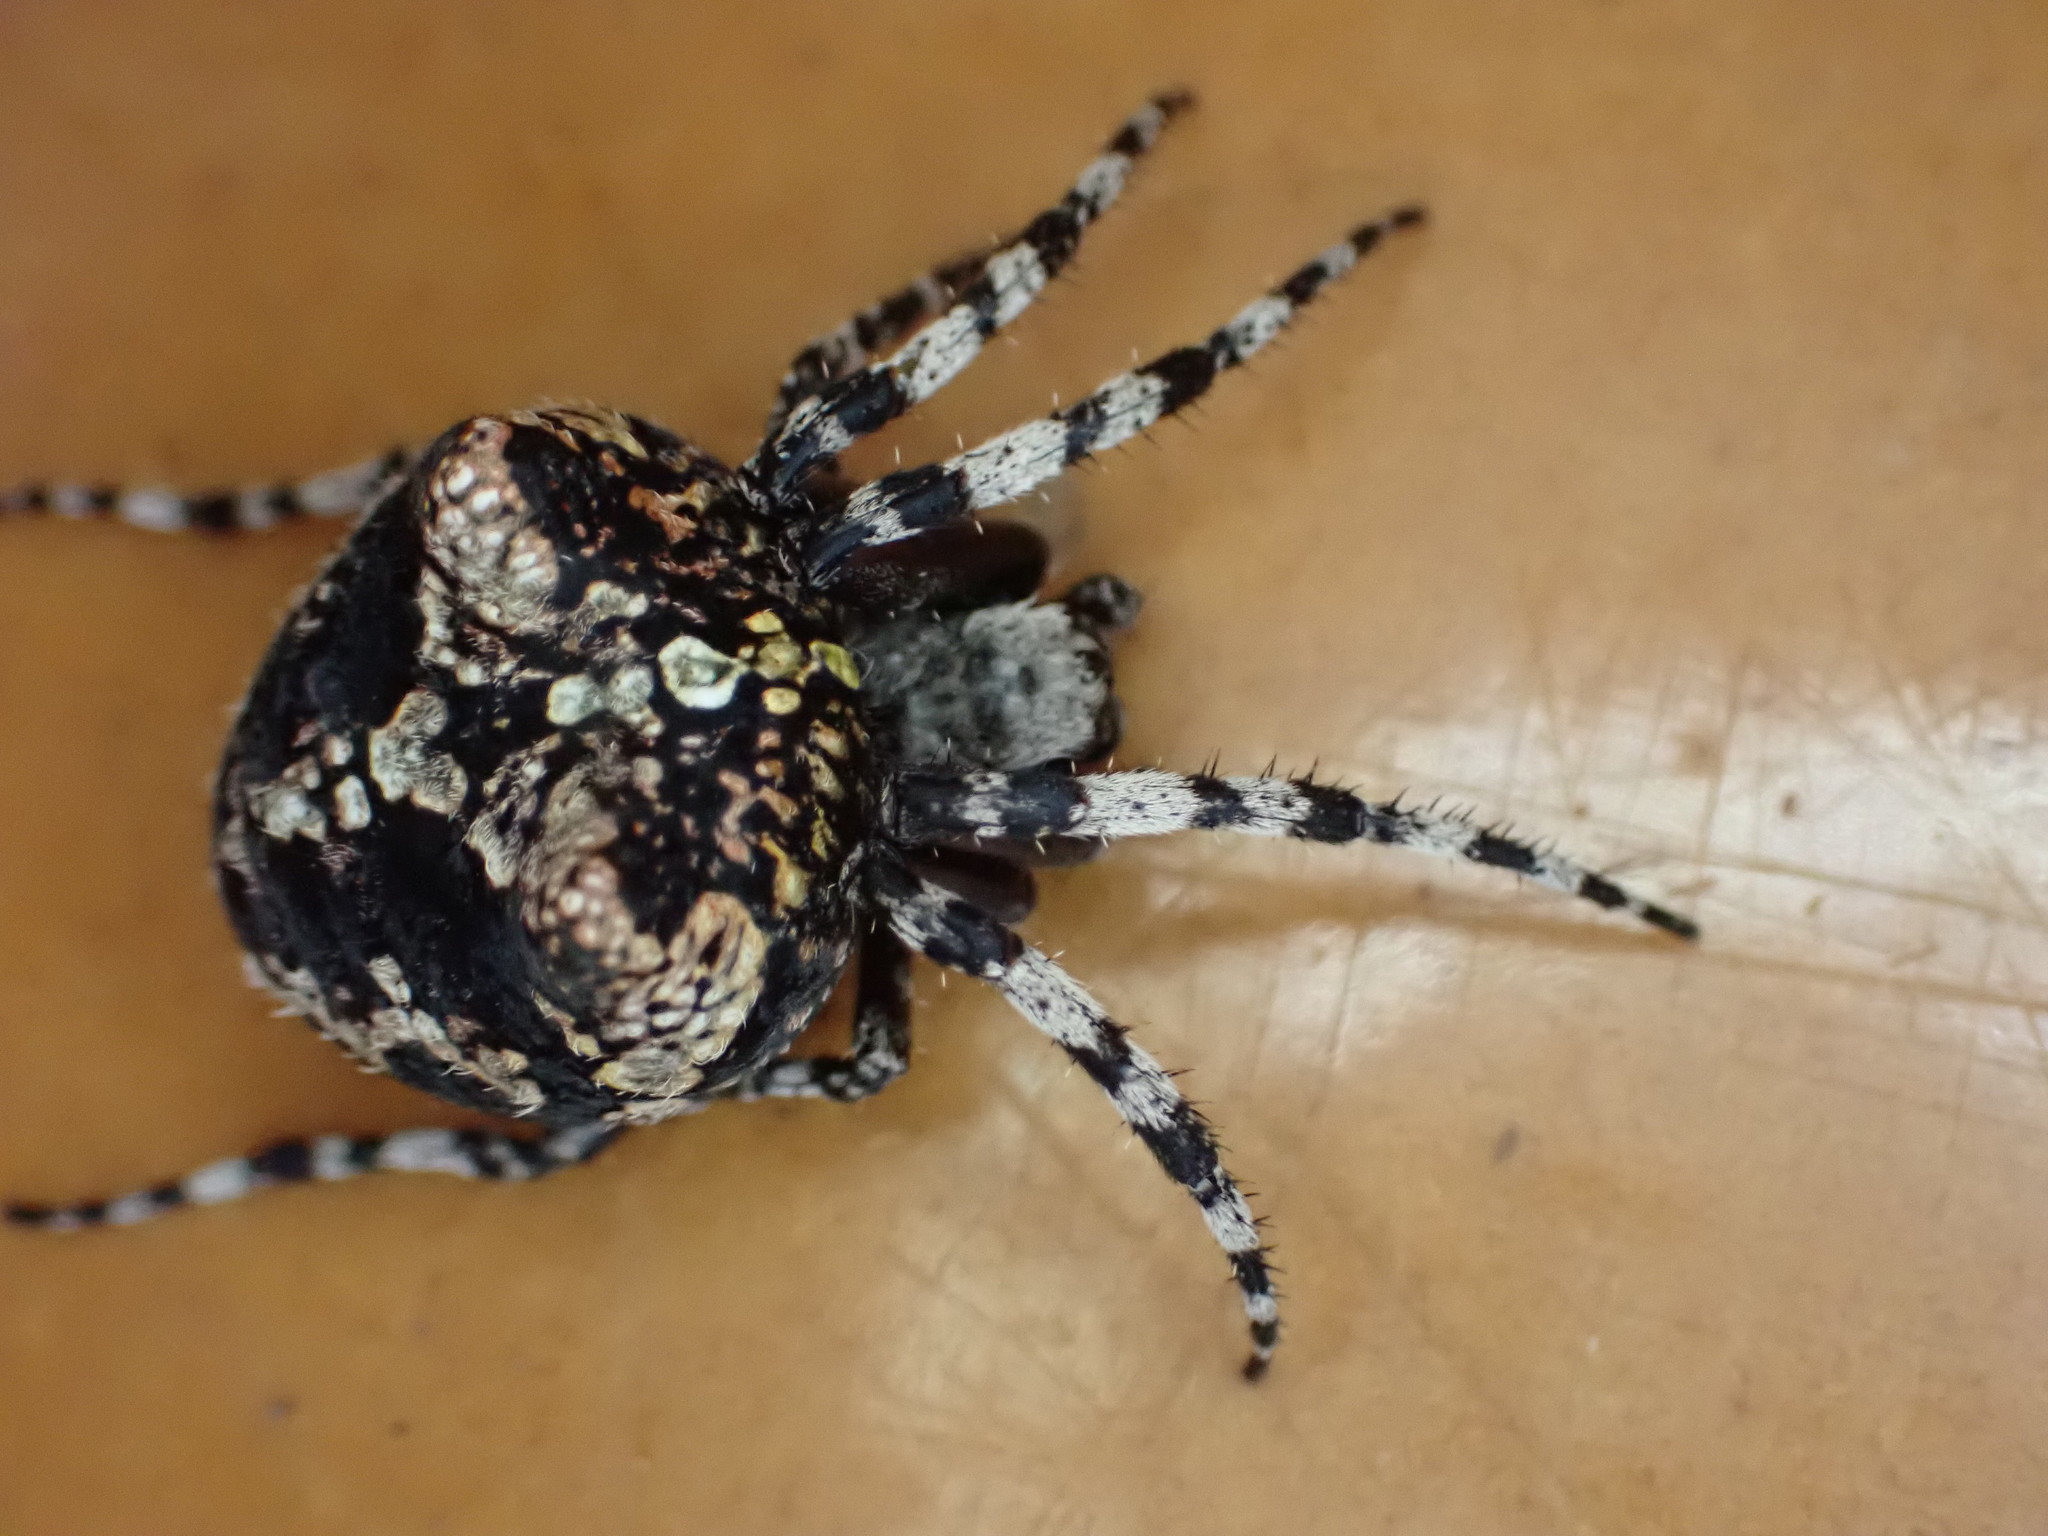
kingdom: Animalia
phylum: Arthropoda
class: Arachnida
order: Araneae
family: Araneidae
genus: Courtaraneus
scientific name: Courtaraneus orientalis
